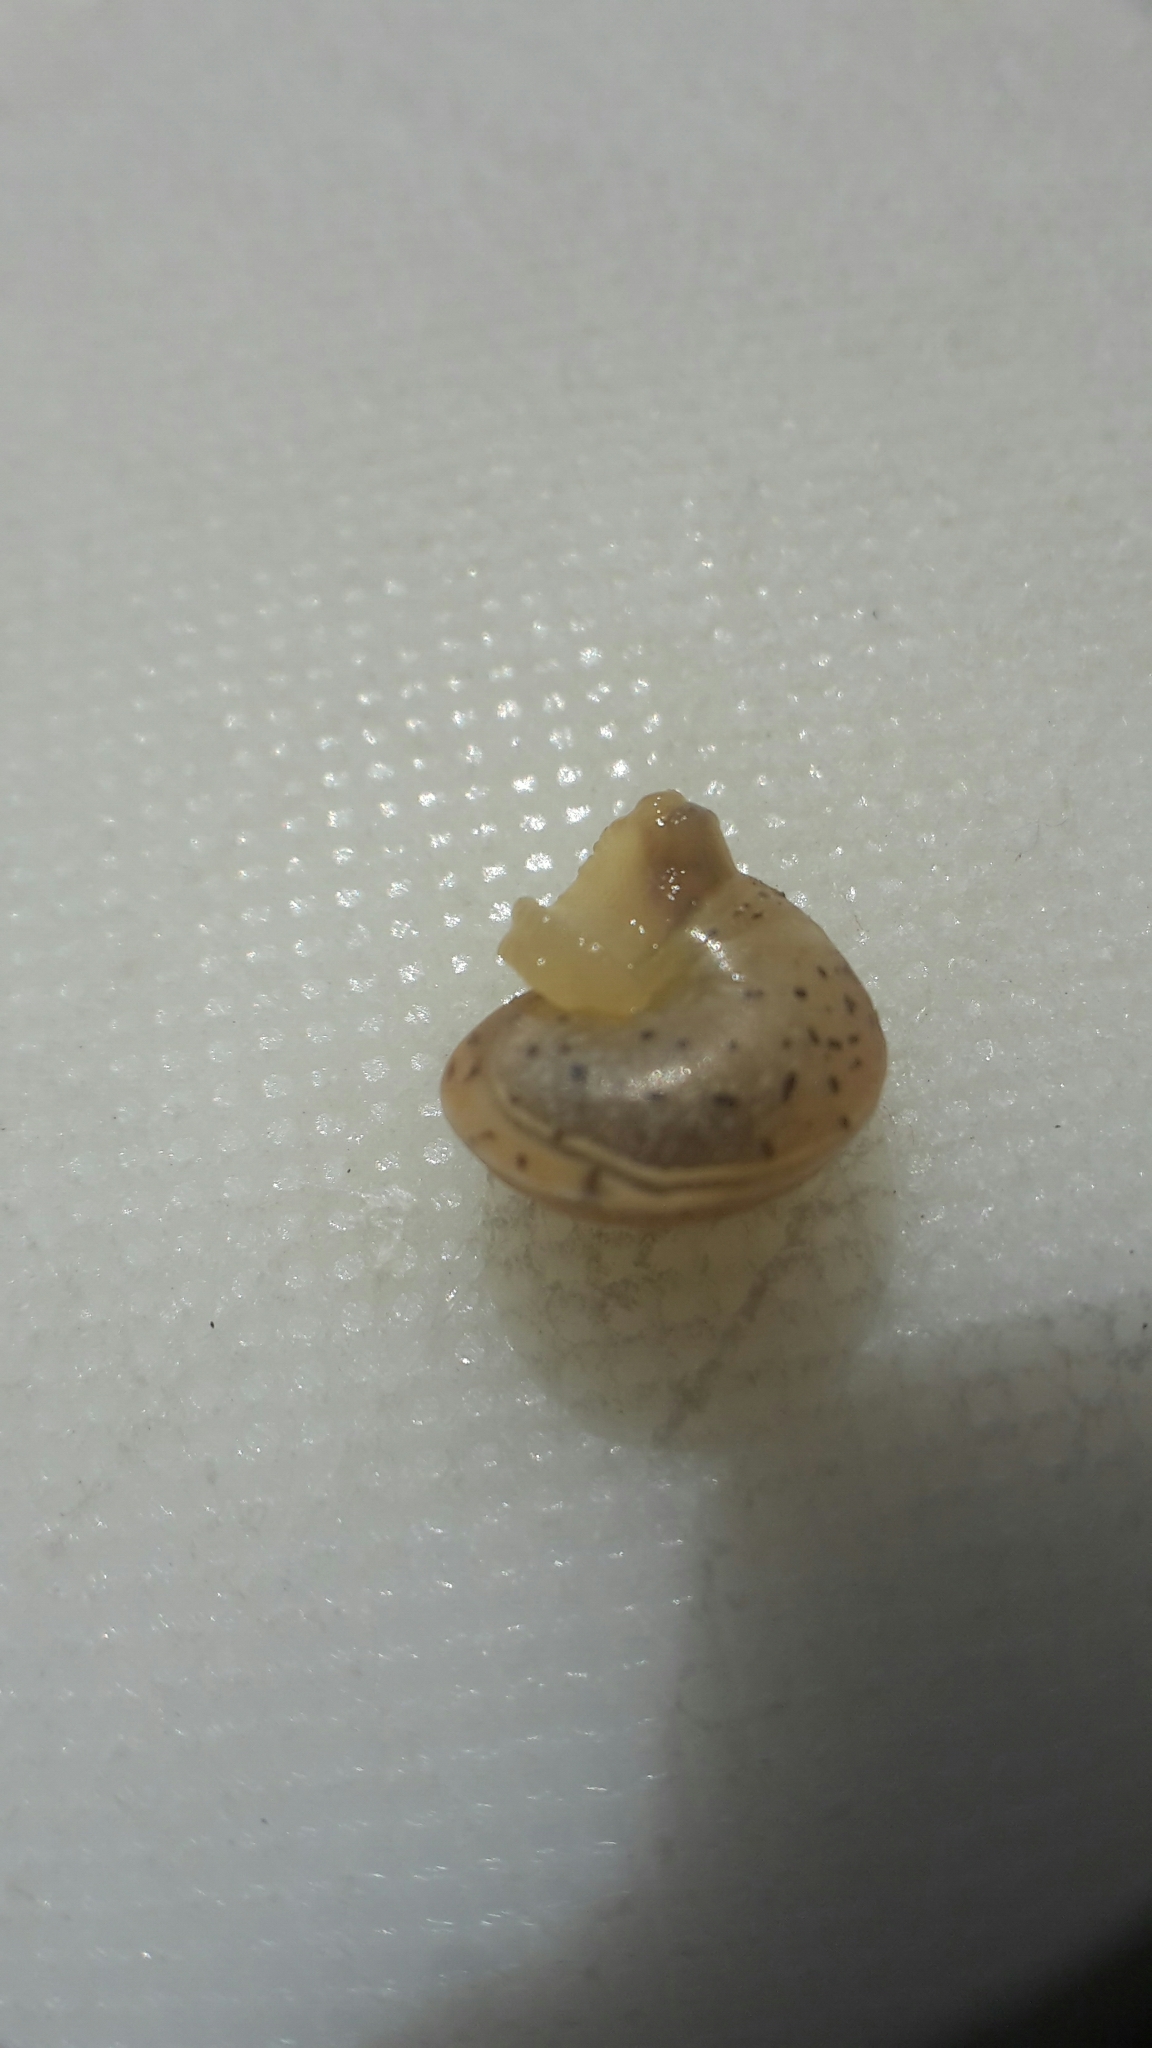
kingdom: Animalia
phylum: Mollusca
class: Gastropoda
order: Stylommatophora
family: Hygromiidae
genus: Hygromia
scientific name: Hygromia cinctella
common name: Girdled snail
